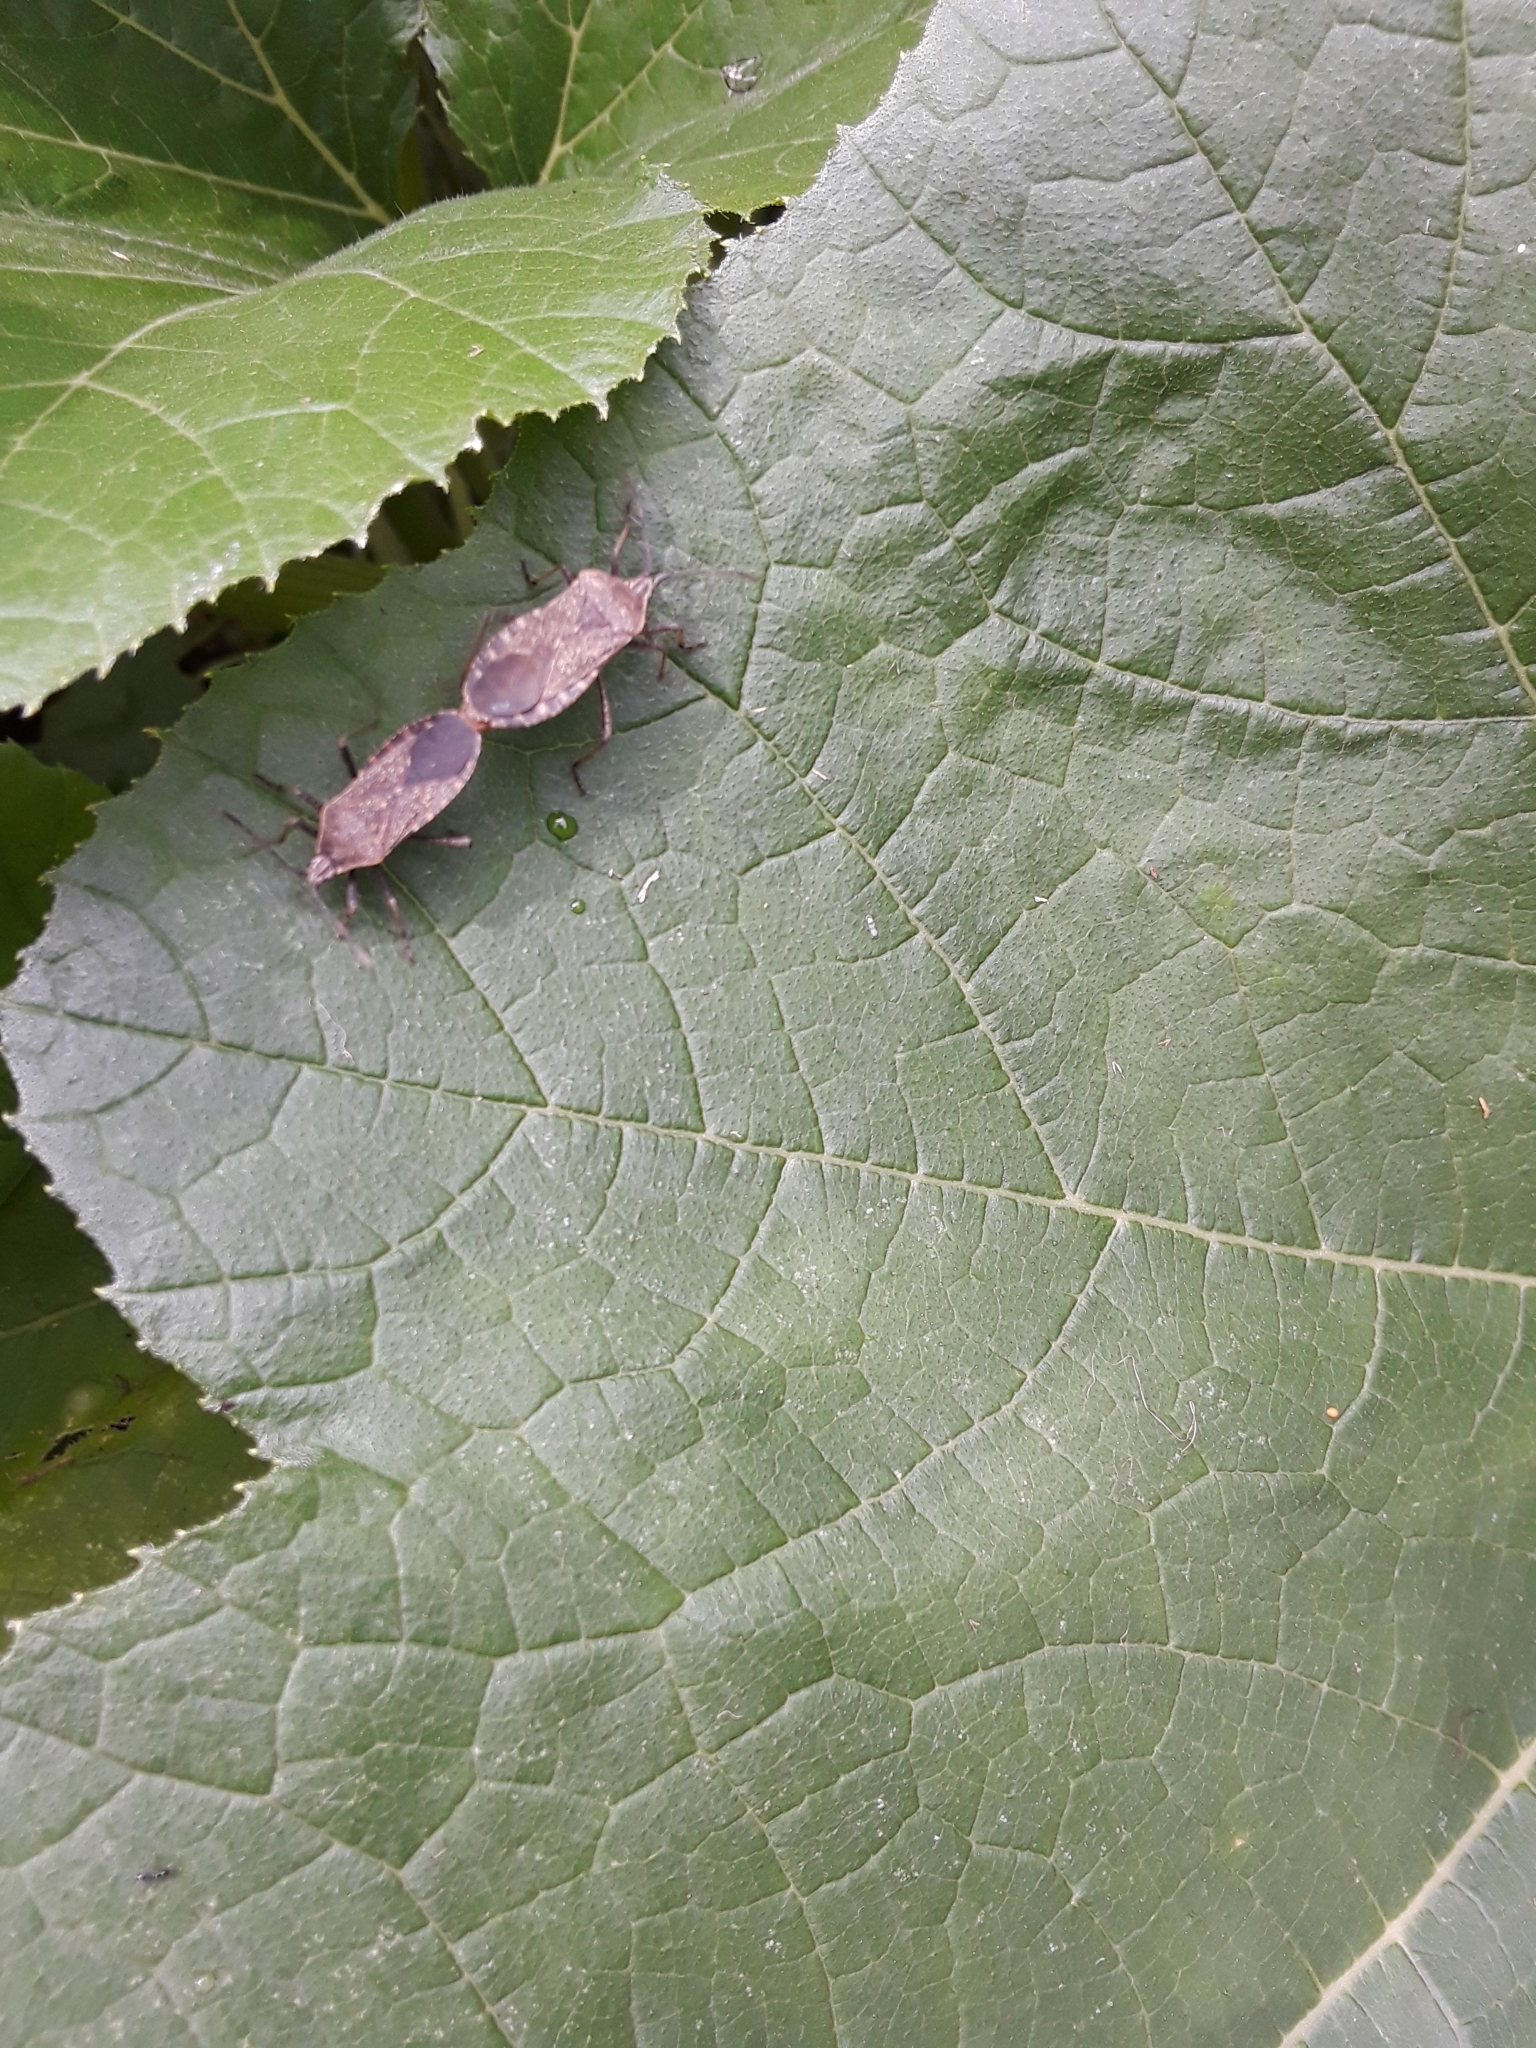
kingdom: Animalia
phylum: Arthropoda
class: Insecta
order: Hemiptera
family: Coreidae
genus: Anasa
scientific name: Anasa tristis
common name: Squash bug
